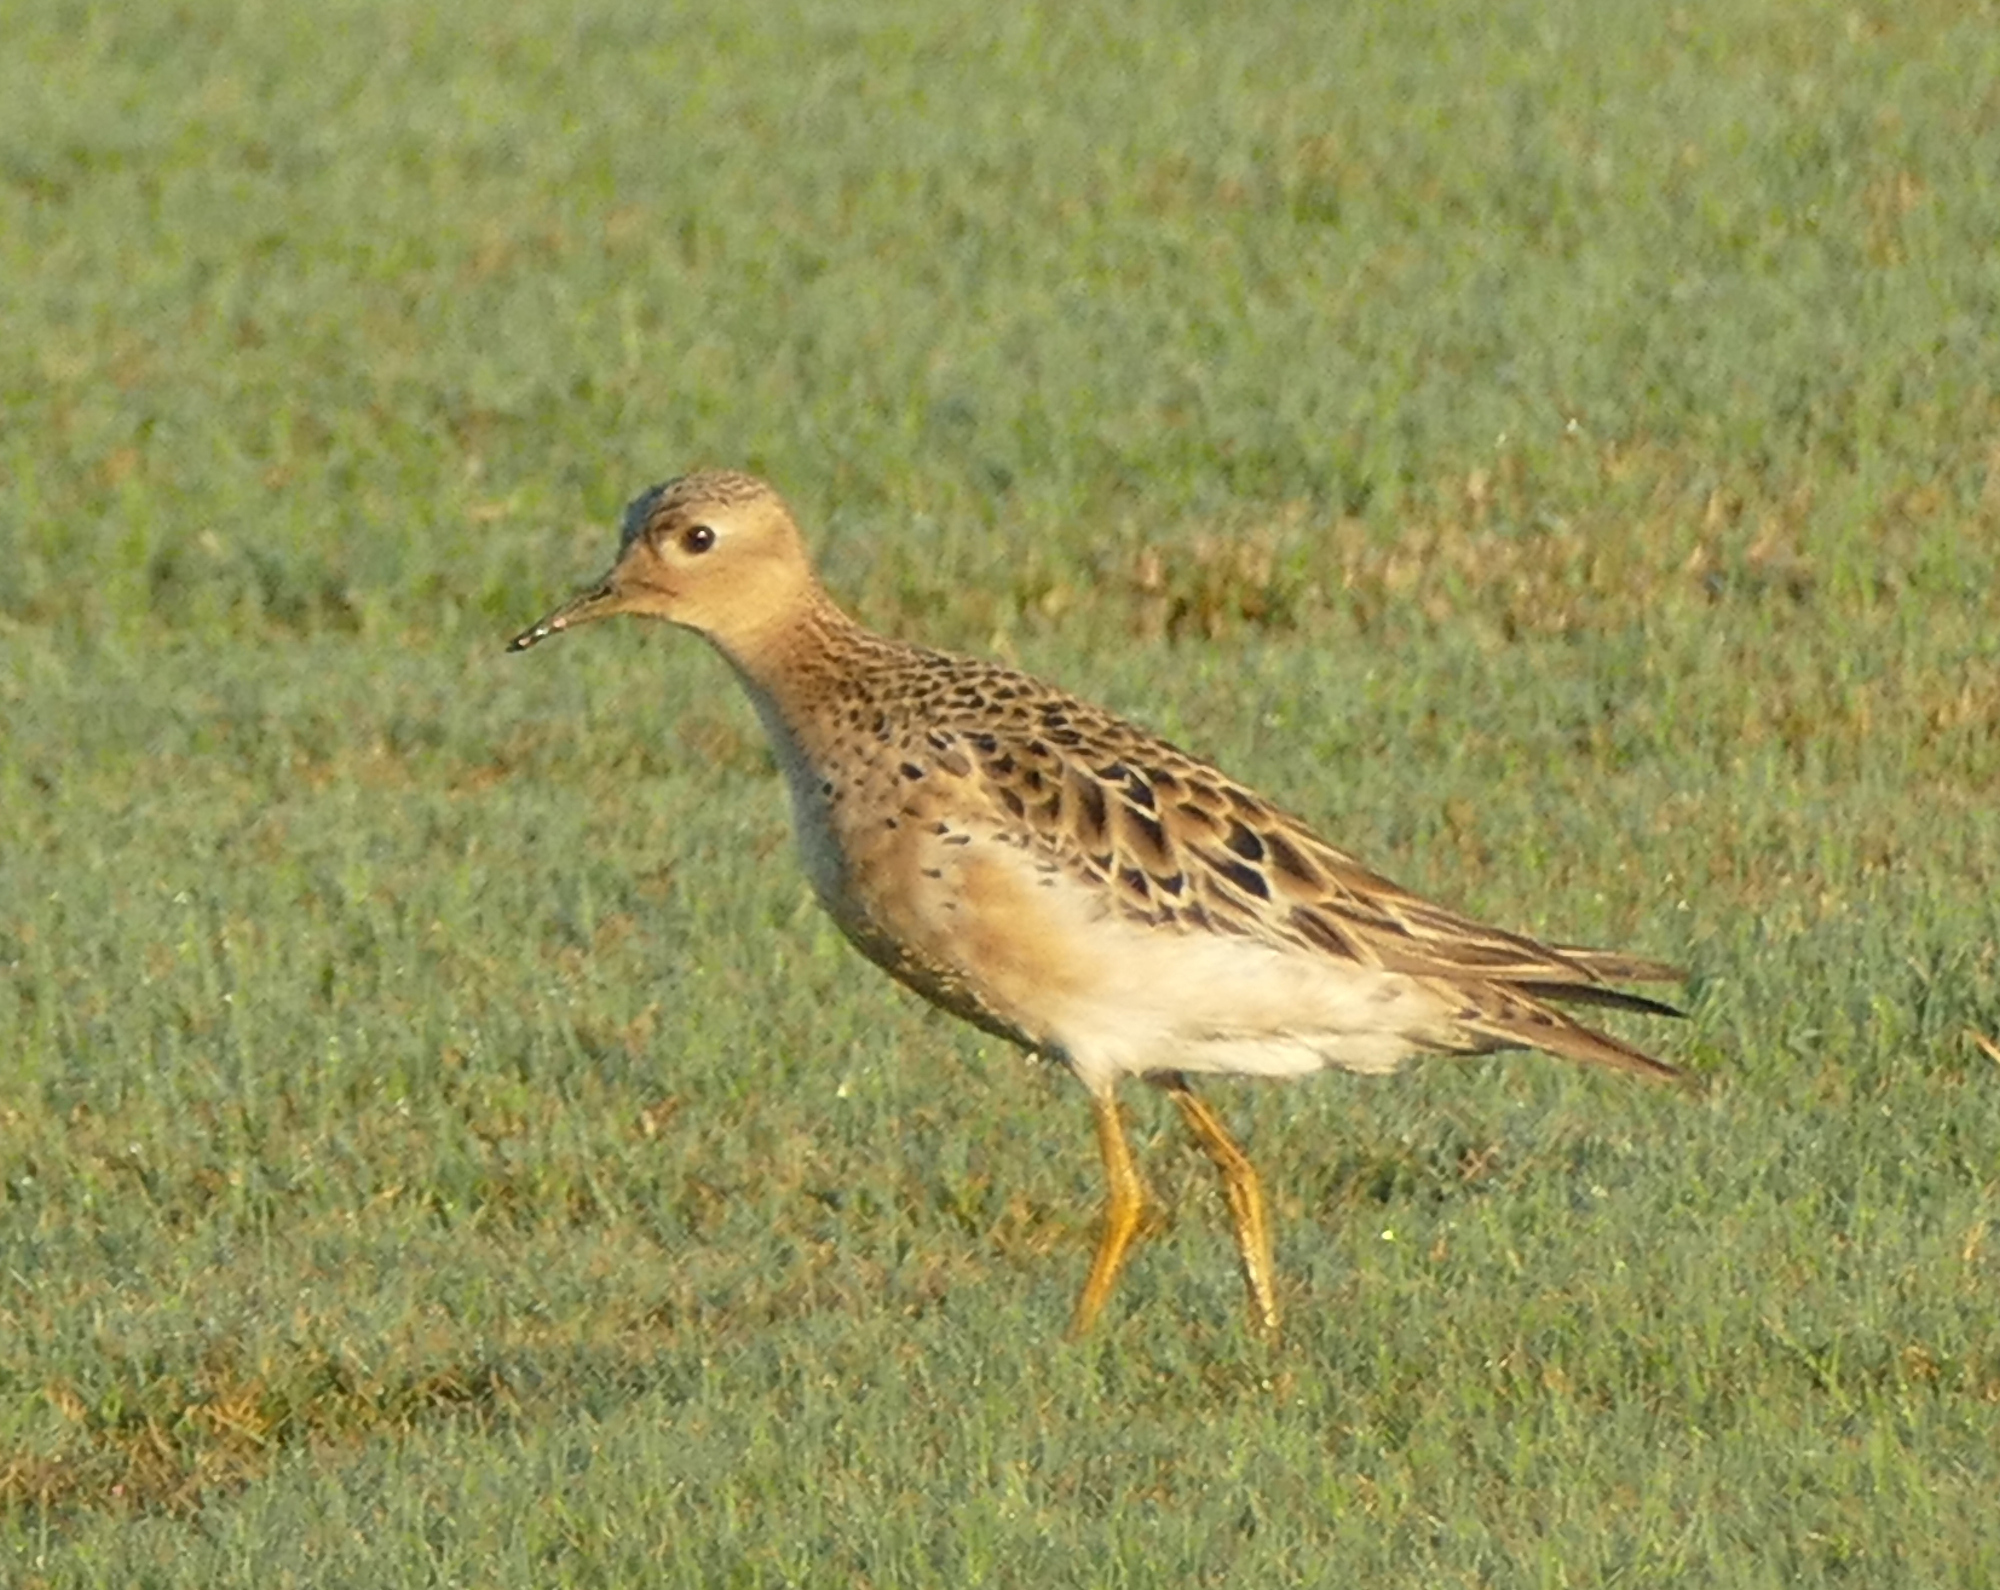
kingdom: Animalia
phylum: Chordata
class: Aves
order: Charadriiformes
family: Scolopacidae
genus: Calidris
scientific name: Calidris subruficollis
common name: Buff-breasted sandpiper
